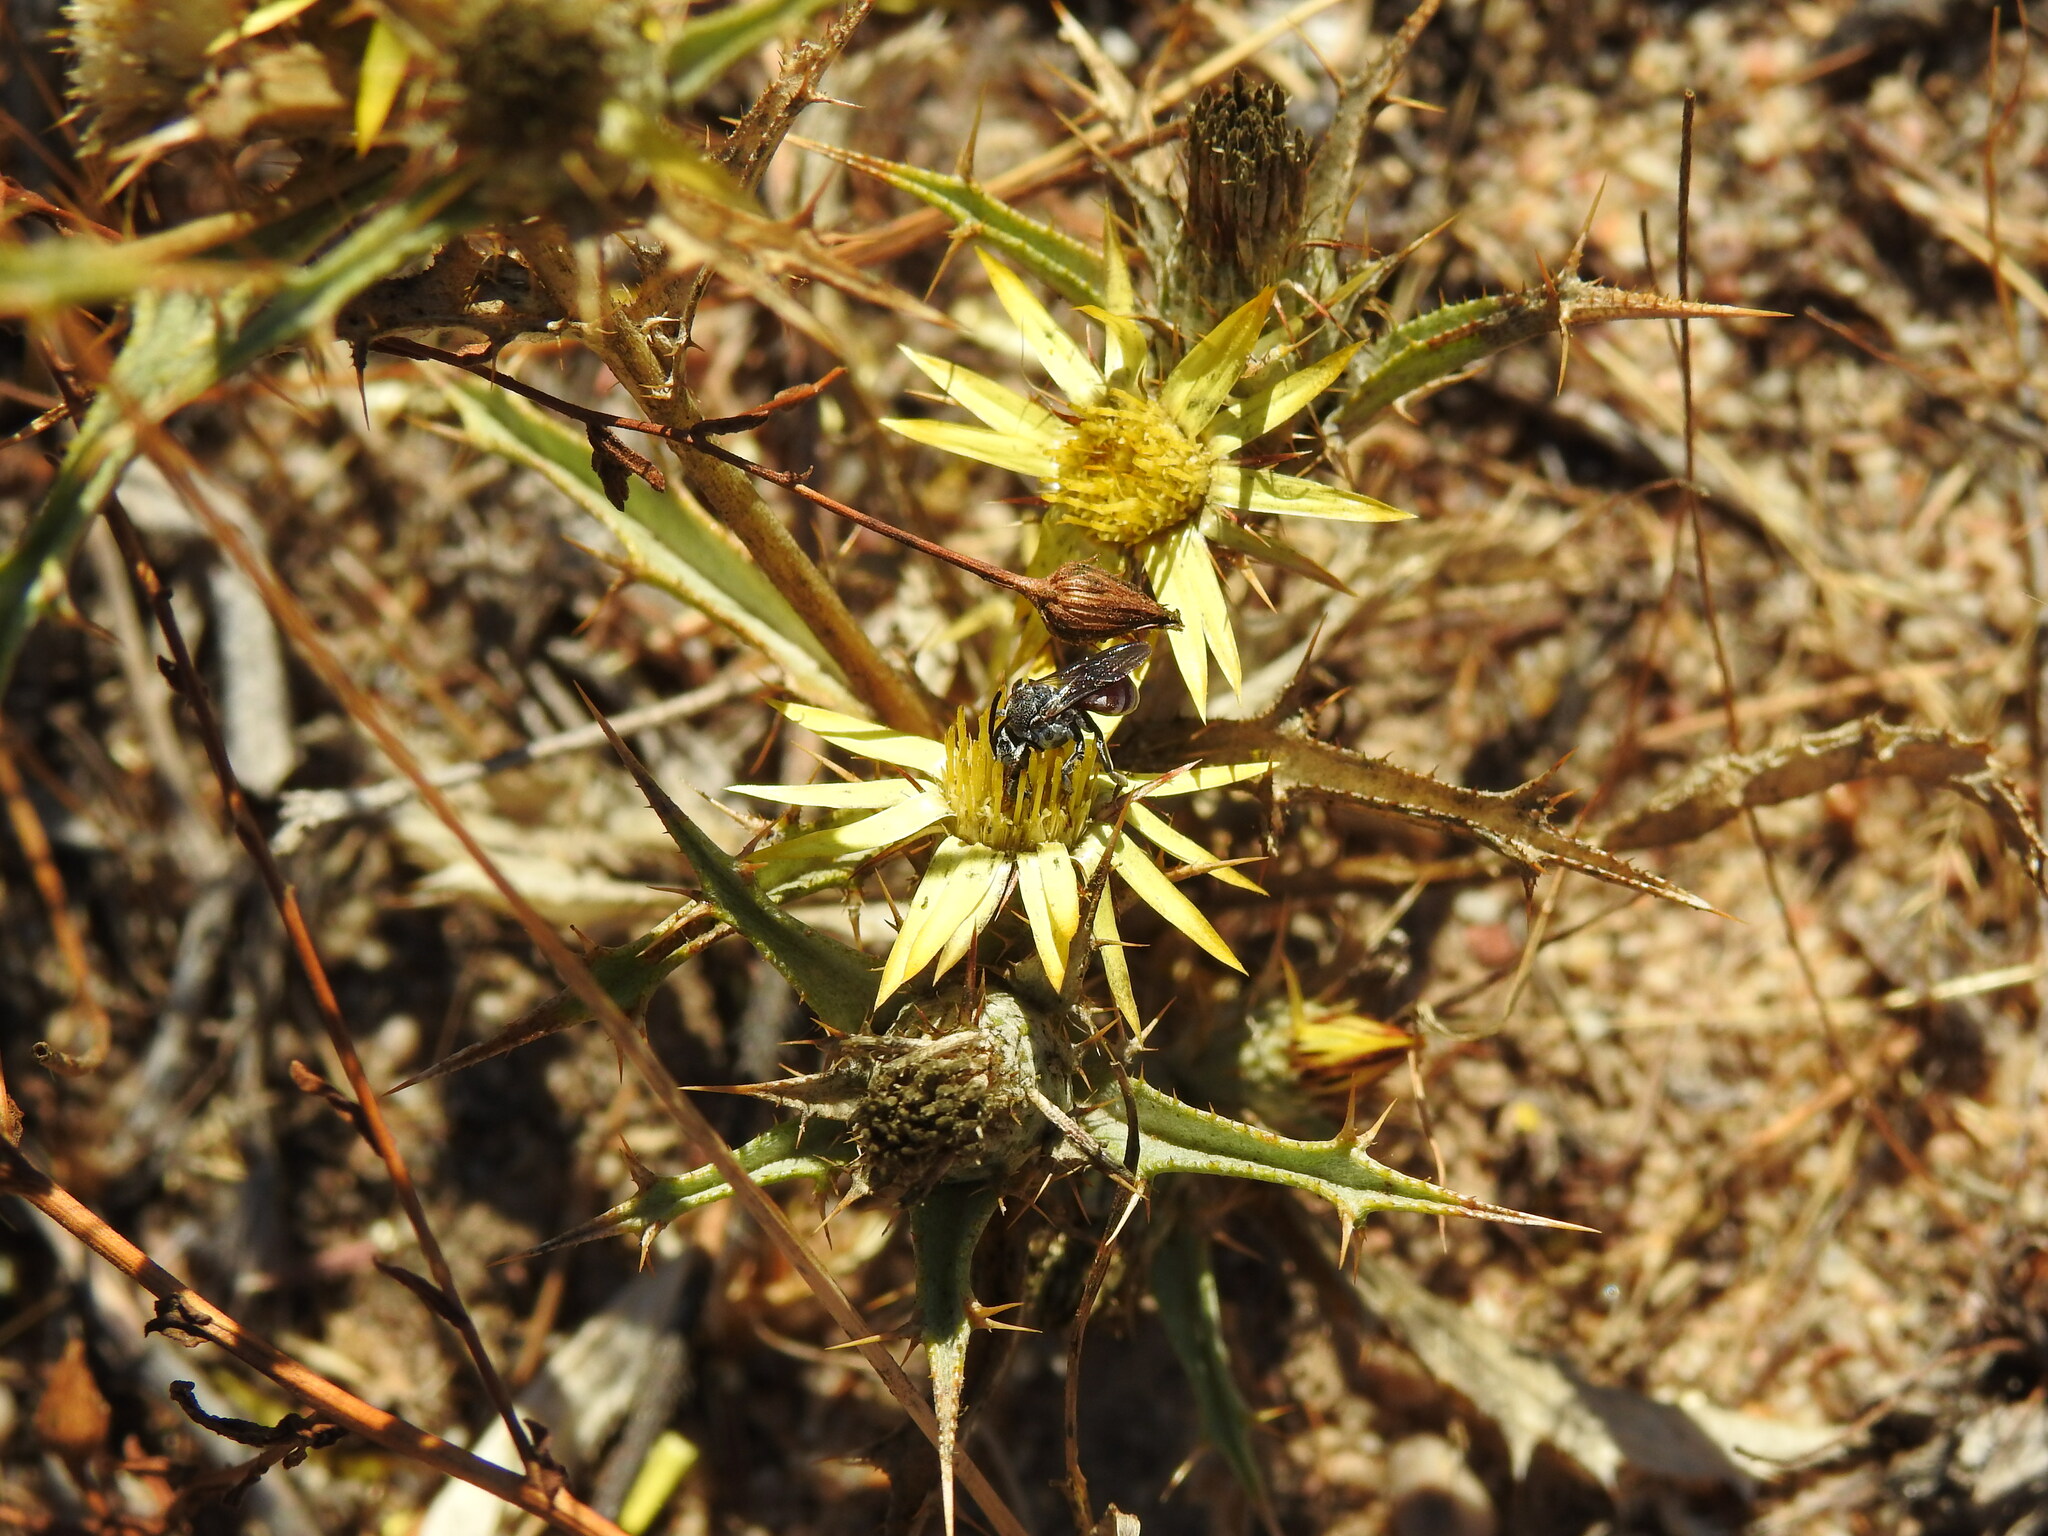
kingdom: Plantae
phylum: Tracheophyta
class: Magnoliopsida
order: Asterales
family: Asteraceae
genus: Carlina
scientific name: Carlina racemosa
